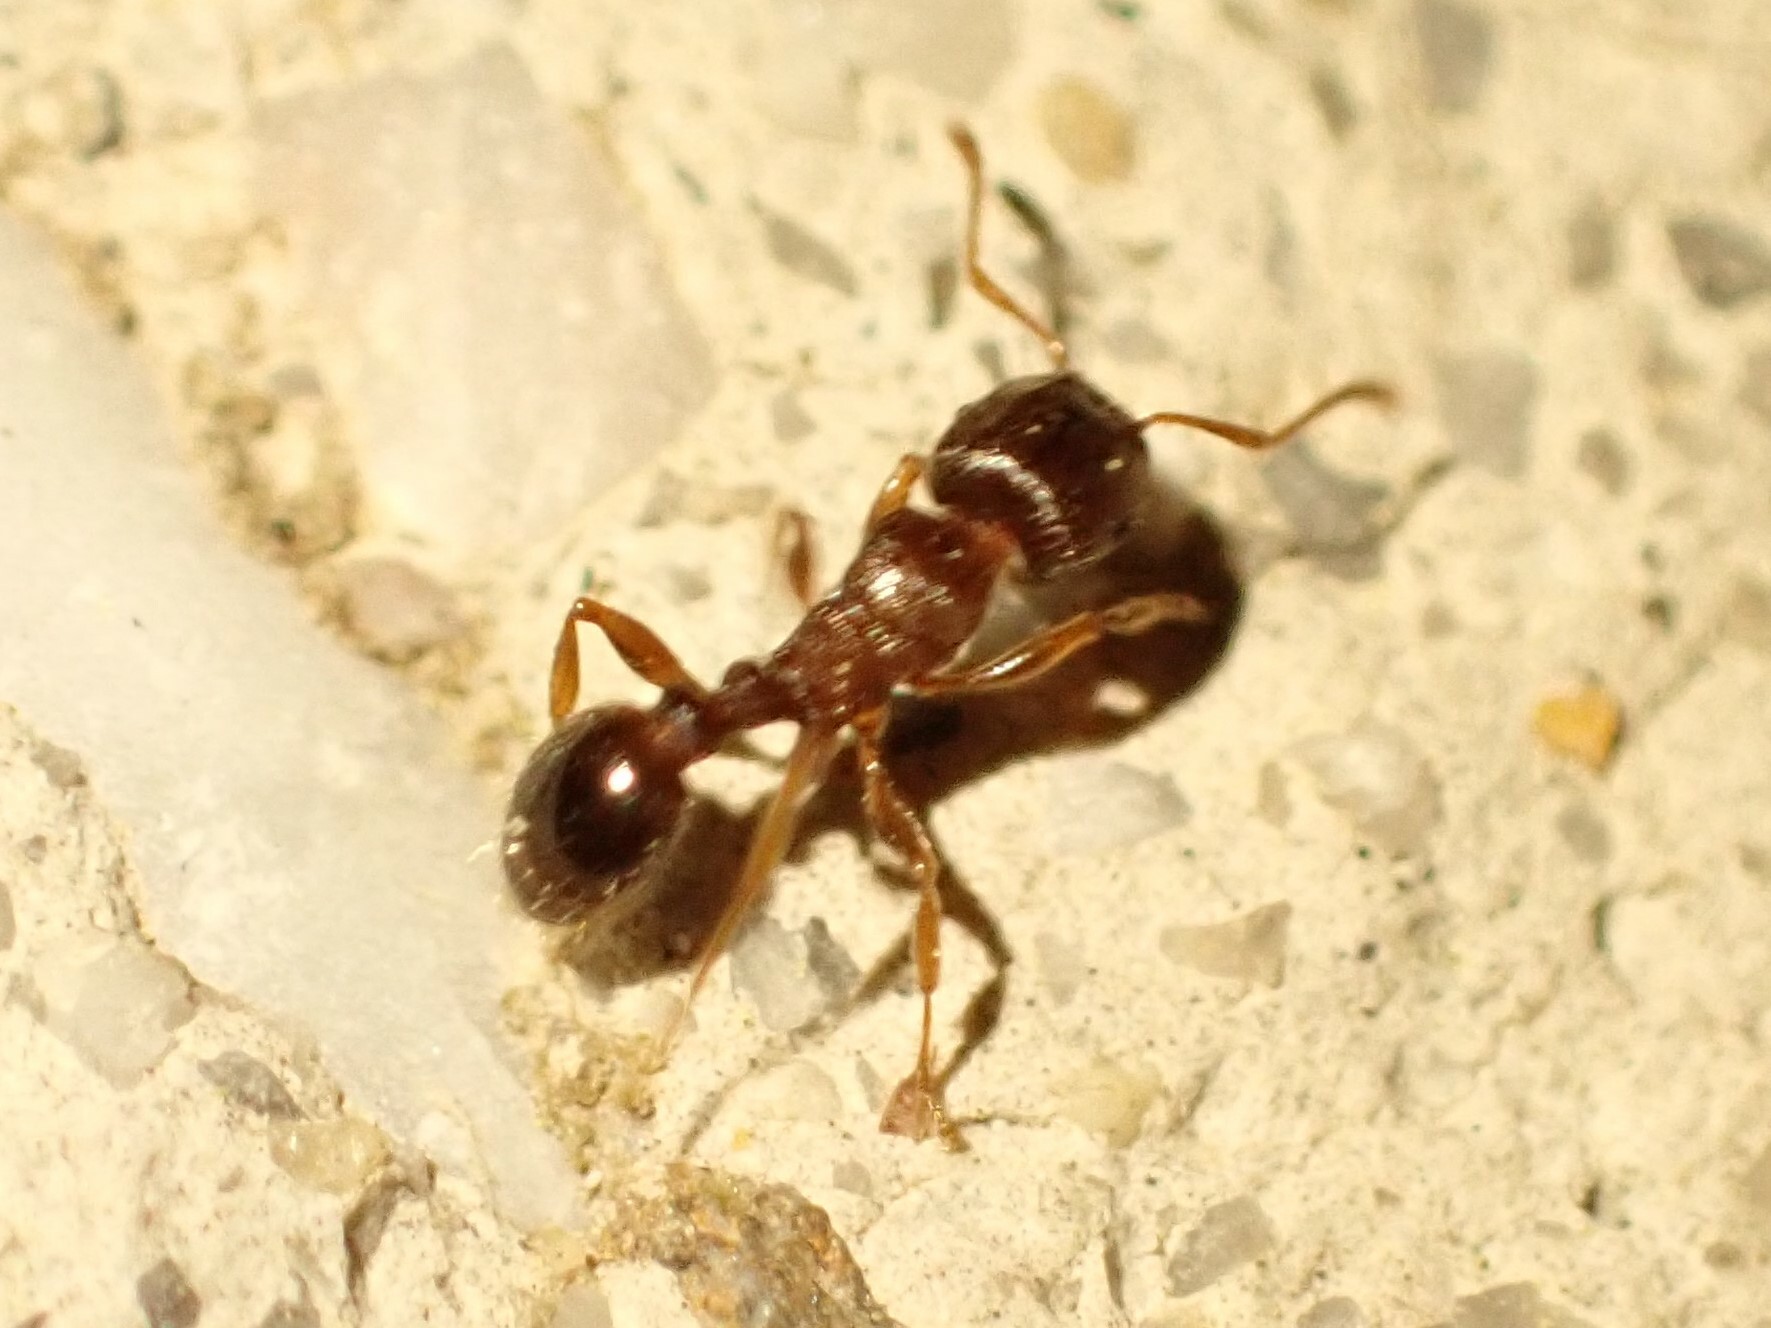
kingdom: Animalia
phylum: Arthropoda
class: Insecta
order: Hymenoptera
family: Formicidae
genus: Tetramorium
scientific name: Tetramorium immigrans
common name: Pavement ant
